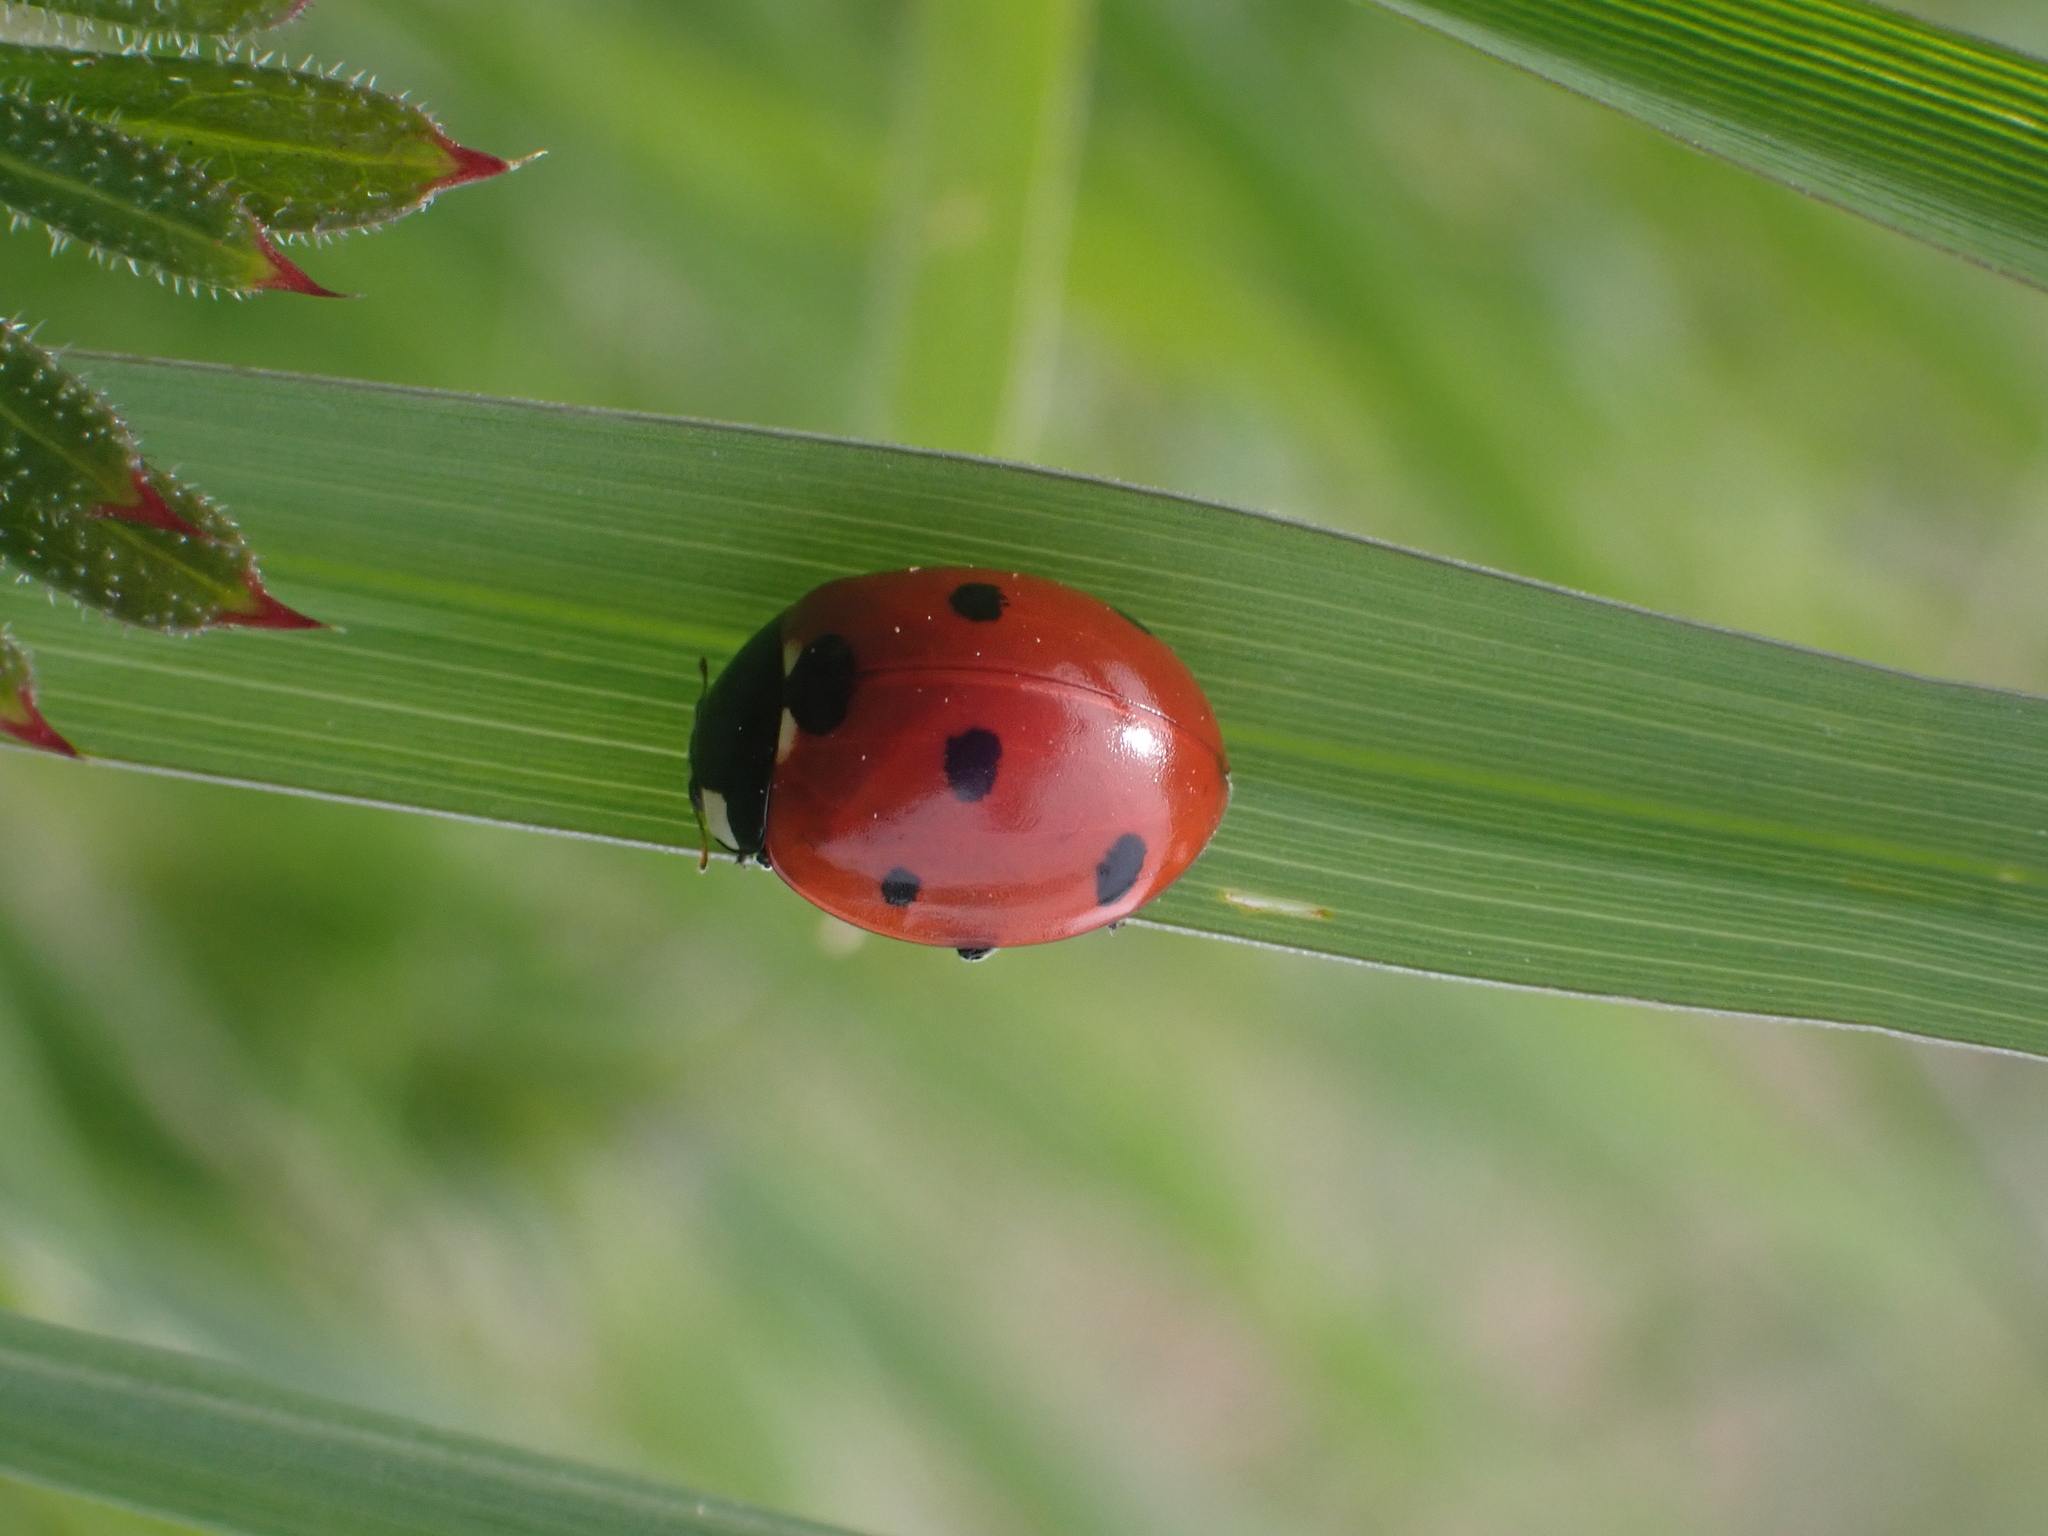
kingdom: Animalia
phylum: Arthropoda
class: Insecta
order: Coleoptera
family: Coccinellidae
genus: Coccinella
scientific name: Coccinella septempunctata
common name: Sevenspotted lady beetle
